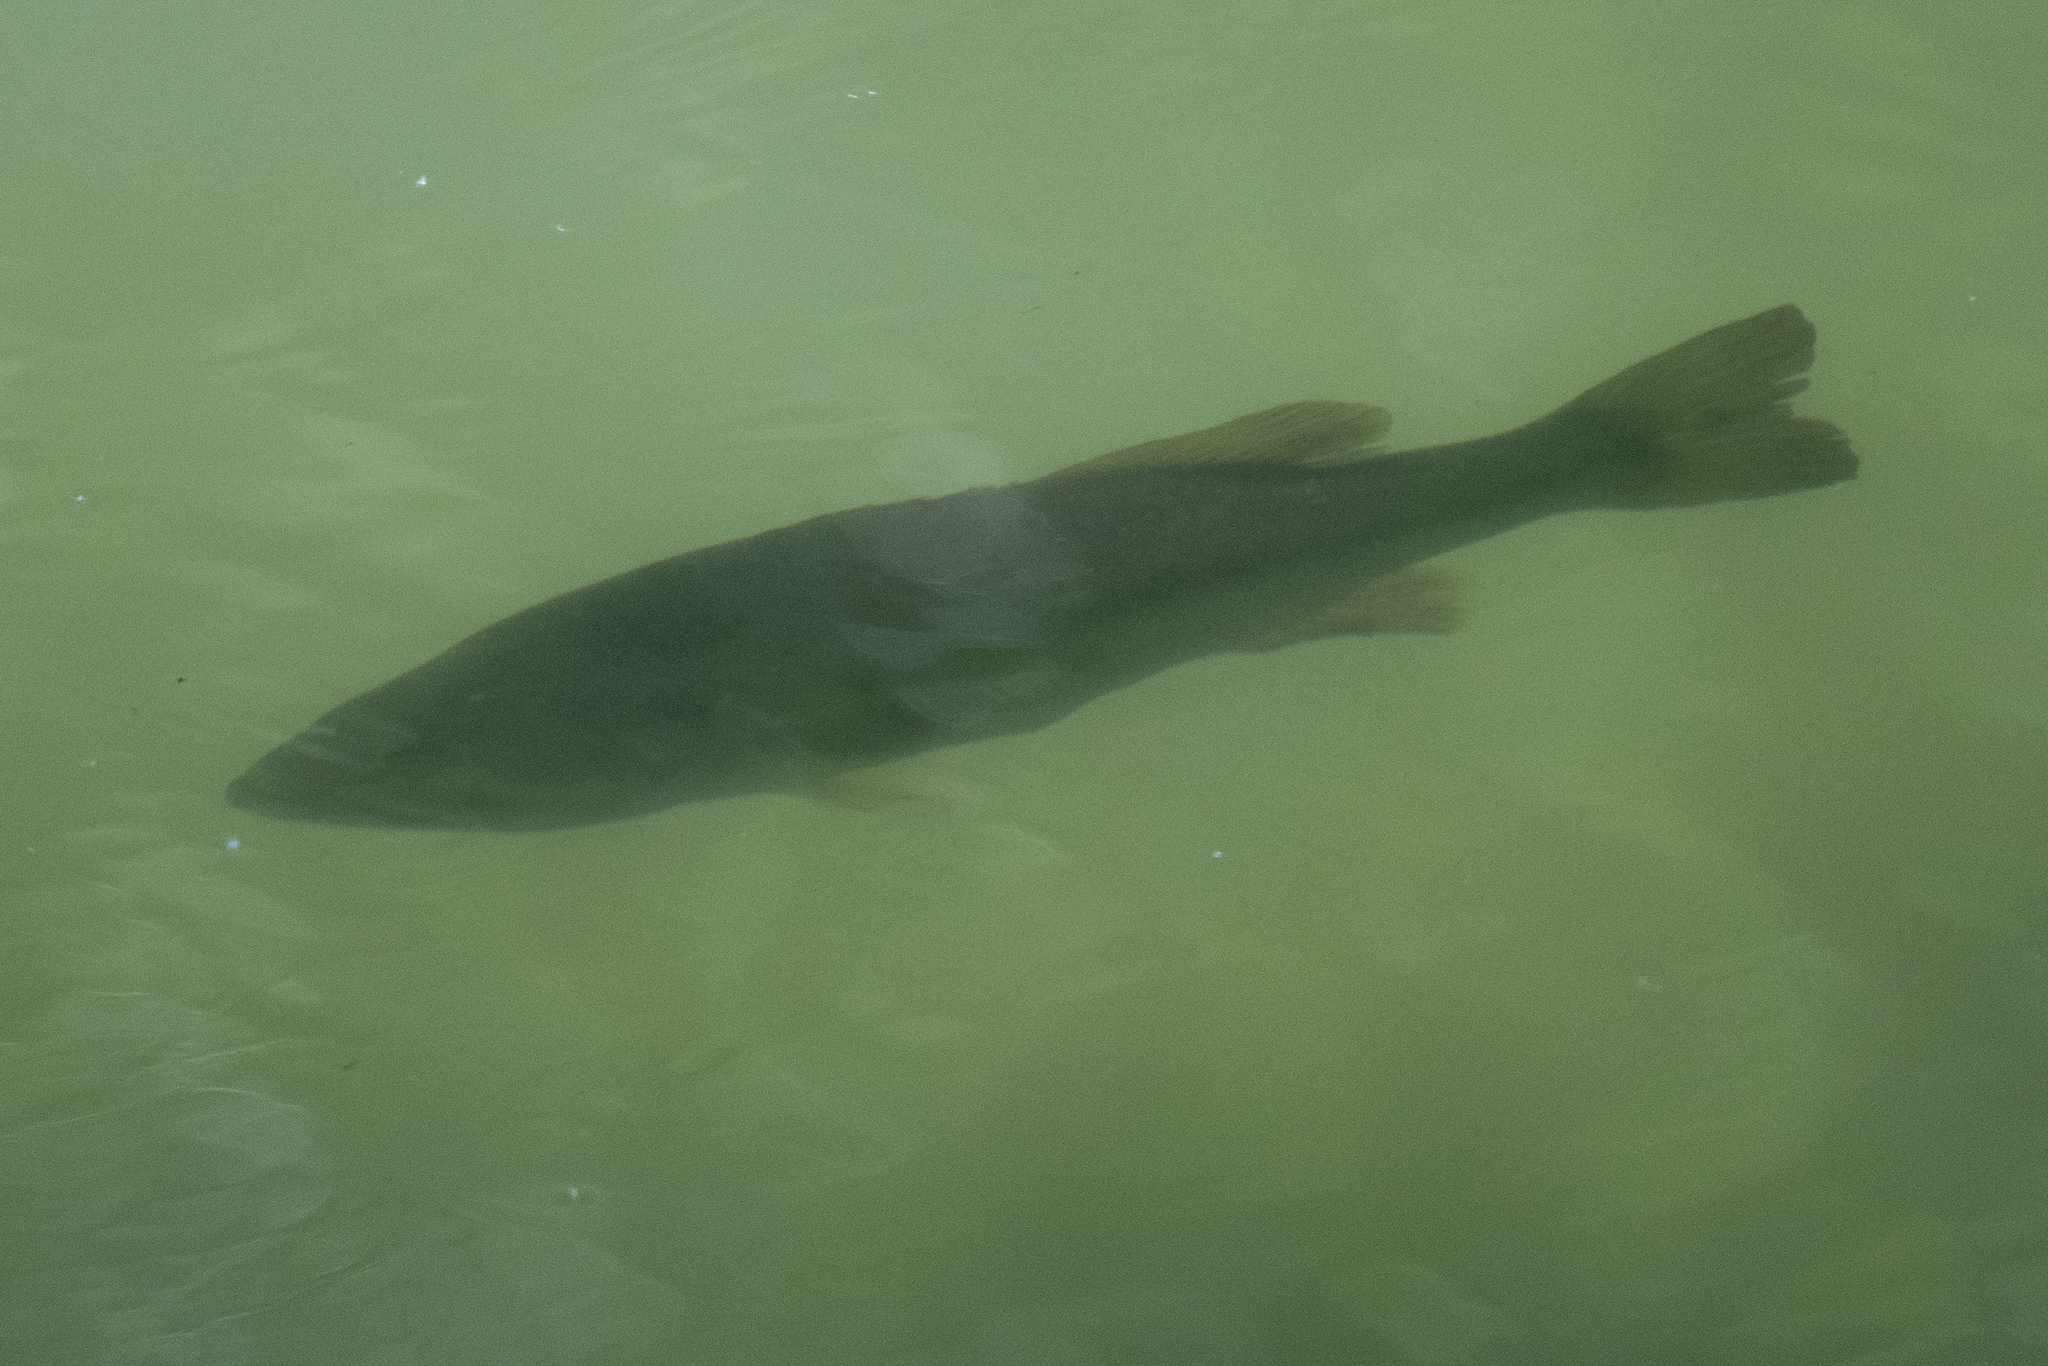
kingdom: Animalia
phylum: Chordata
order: Perciformes
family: Centrarchidae
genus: Micropterus
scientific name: Micropterus
